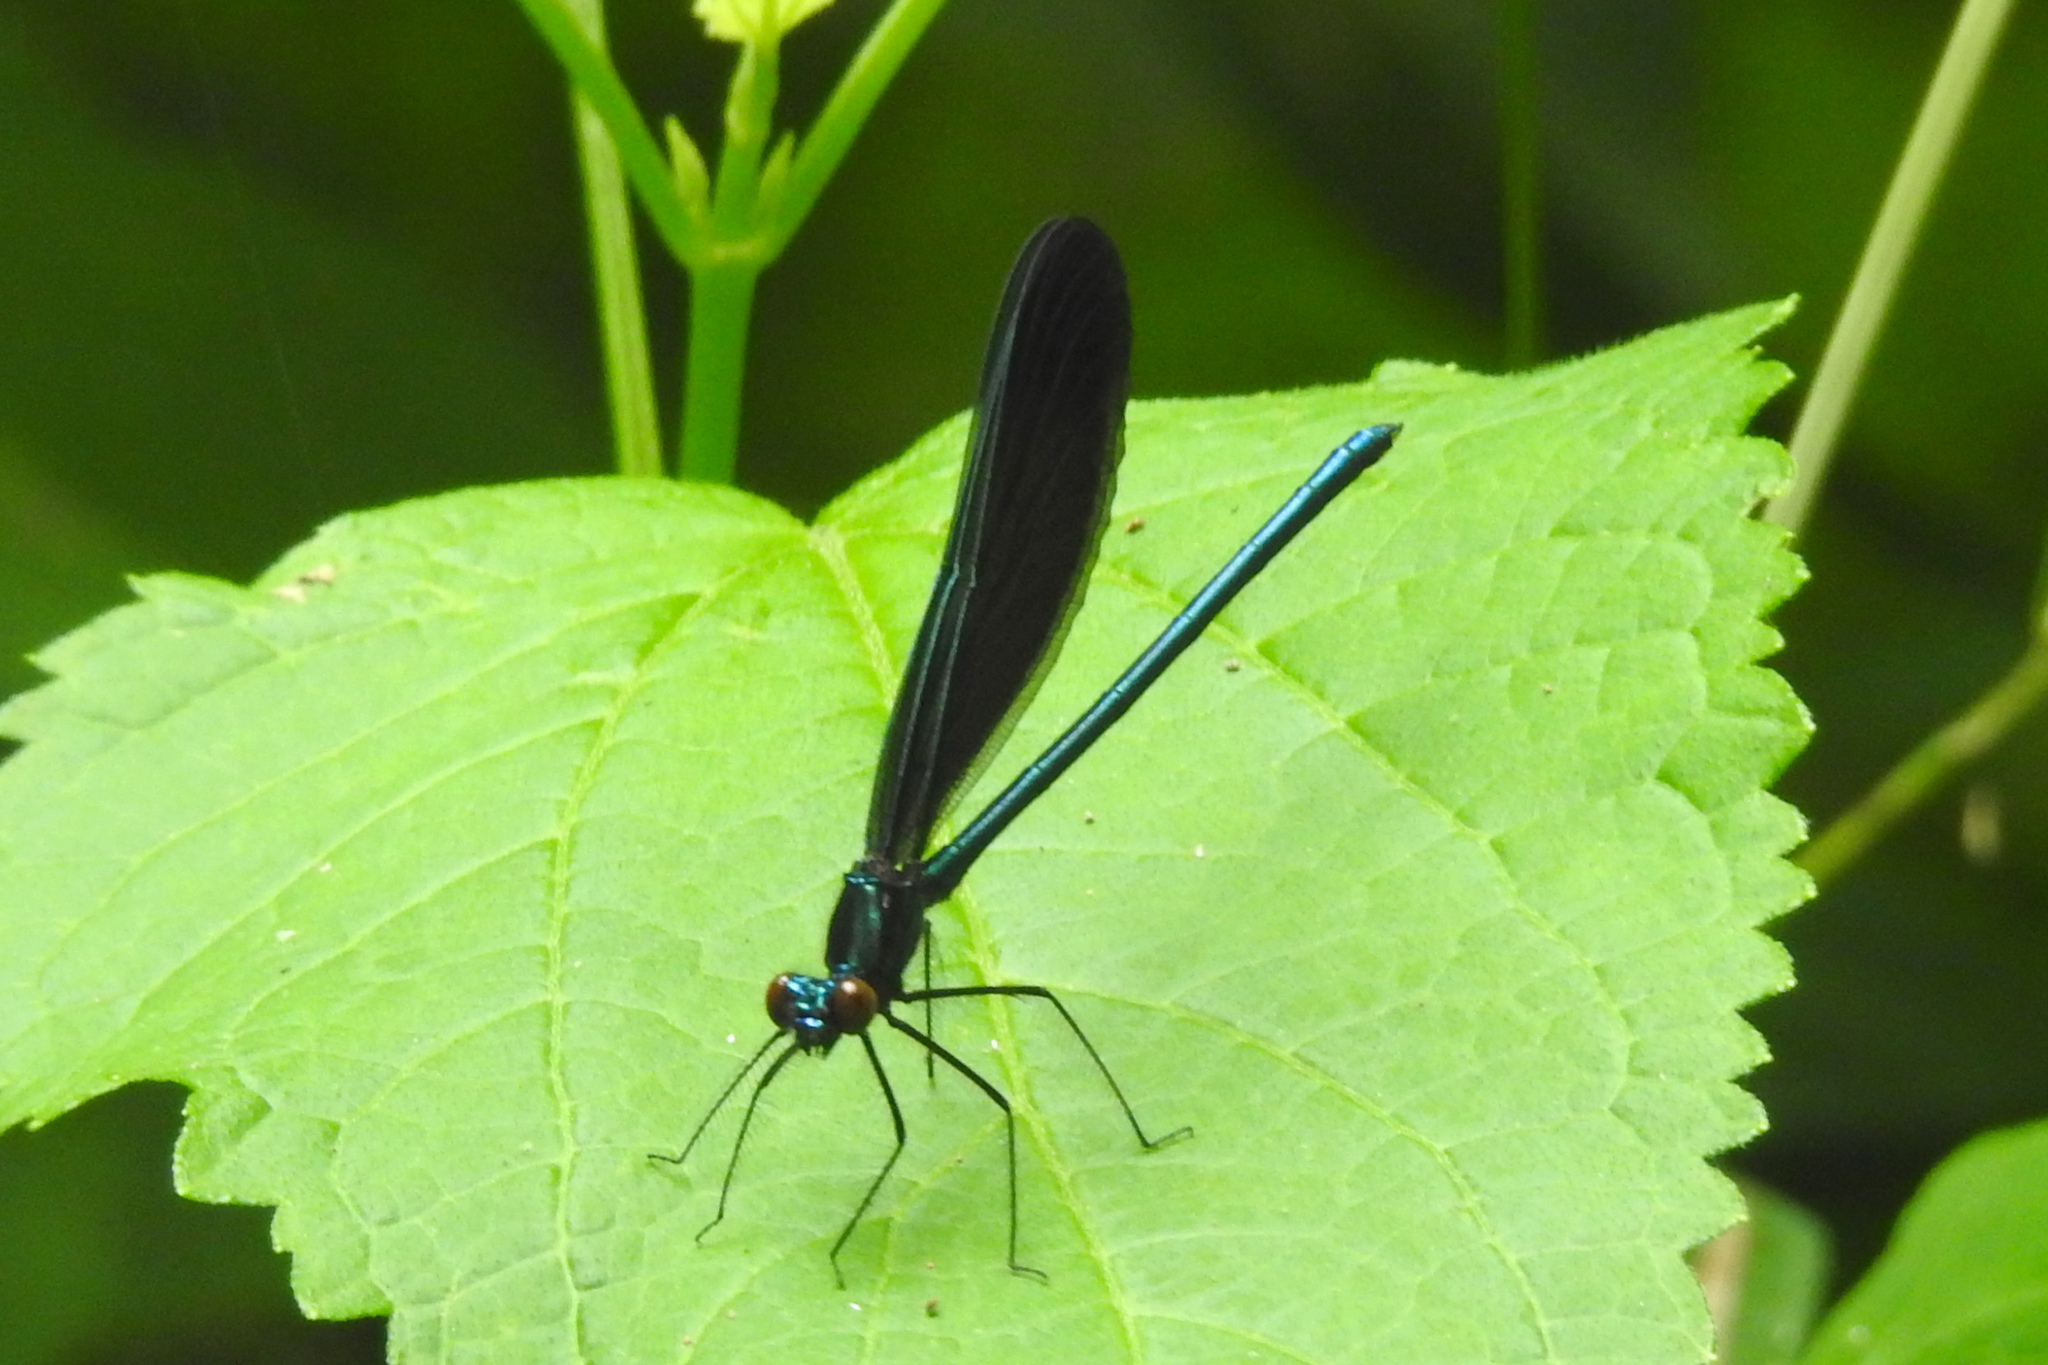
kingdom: Animalia
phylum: Arthropoda
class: Insecta
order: Odonata
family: Calopterygidae
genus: Calopteryx
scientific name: Calopteryx maculata
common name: Ebony jewelwing
